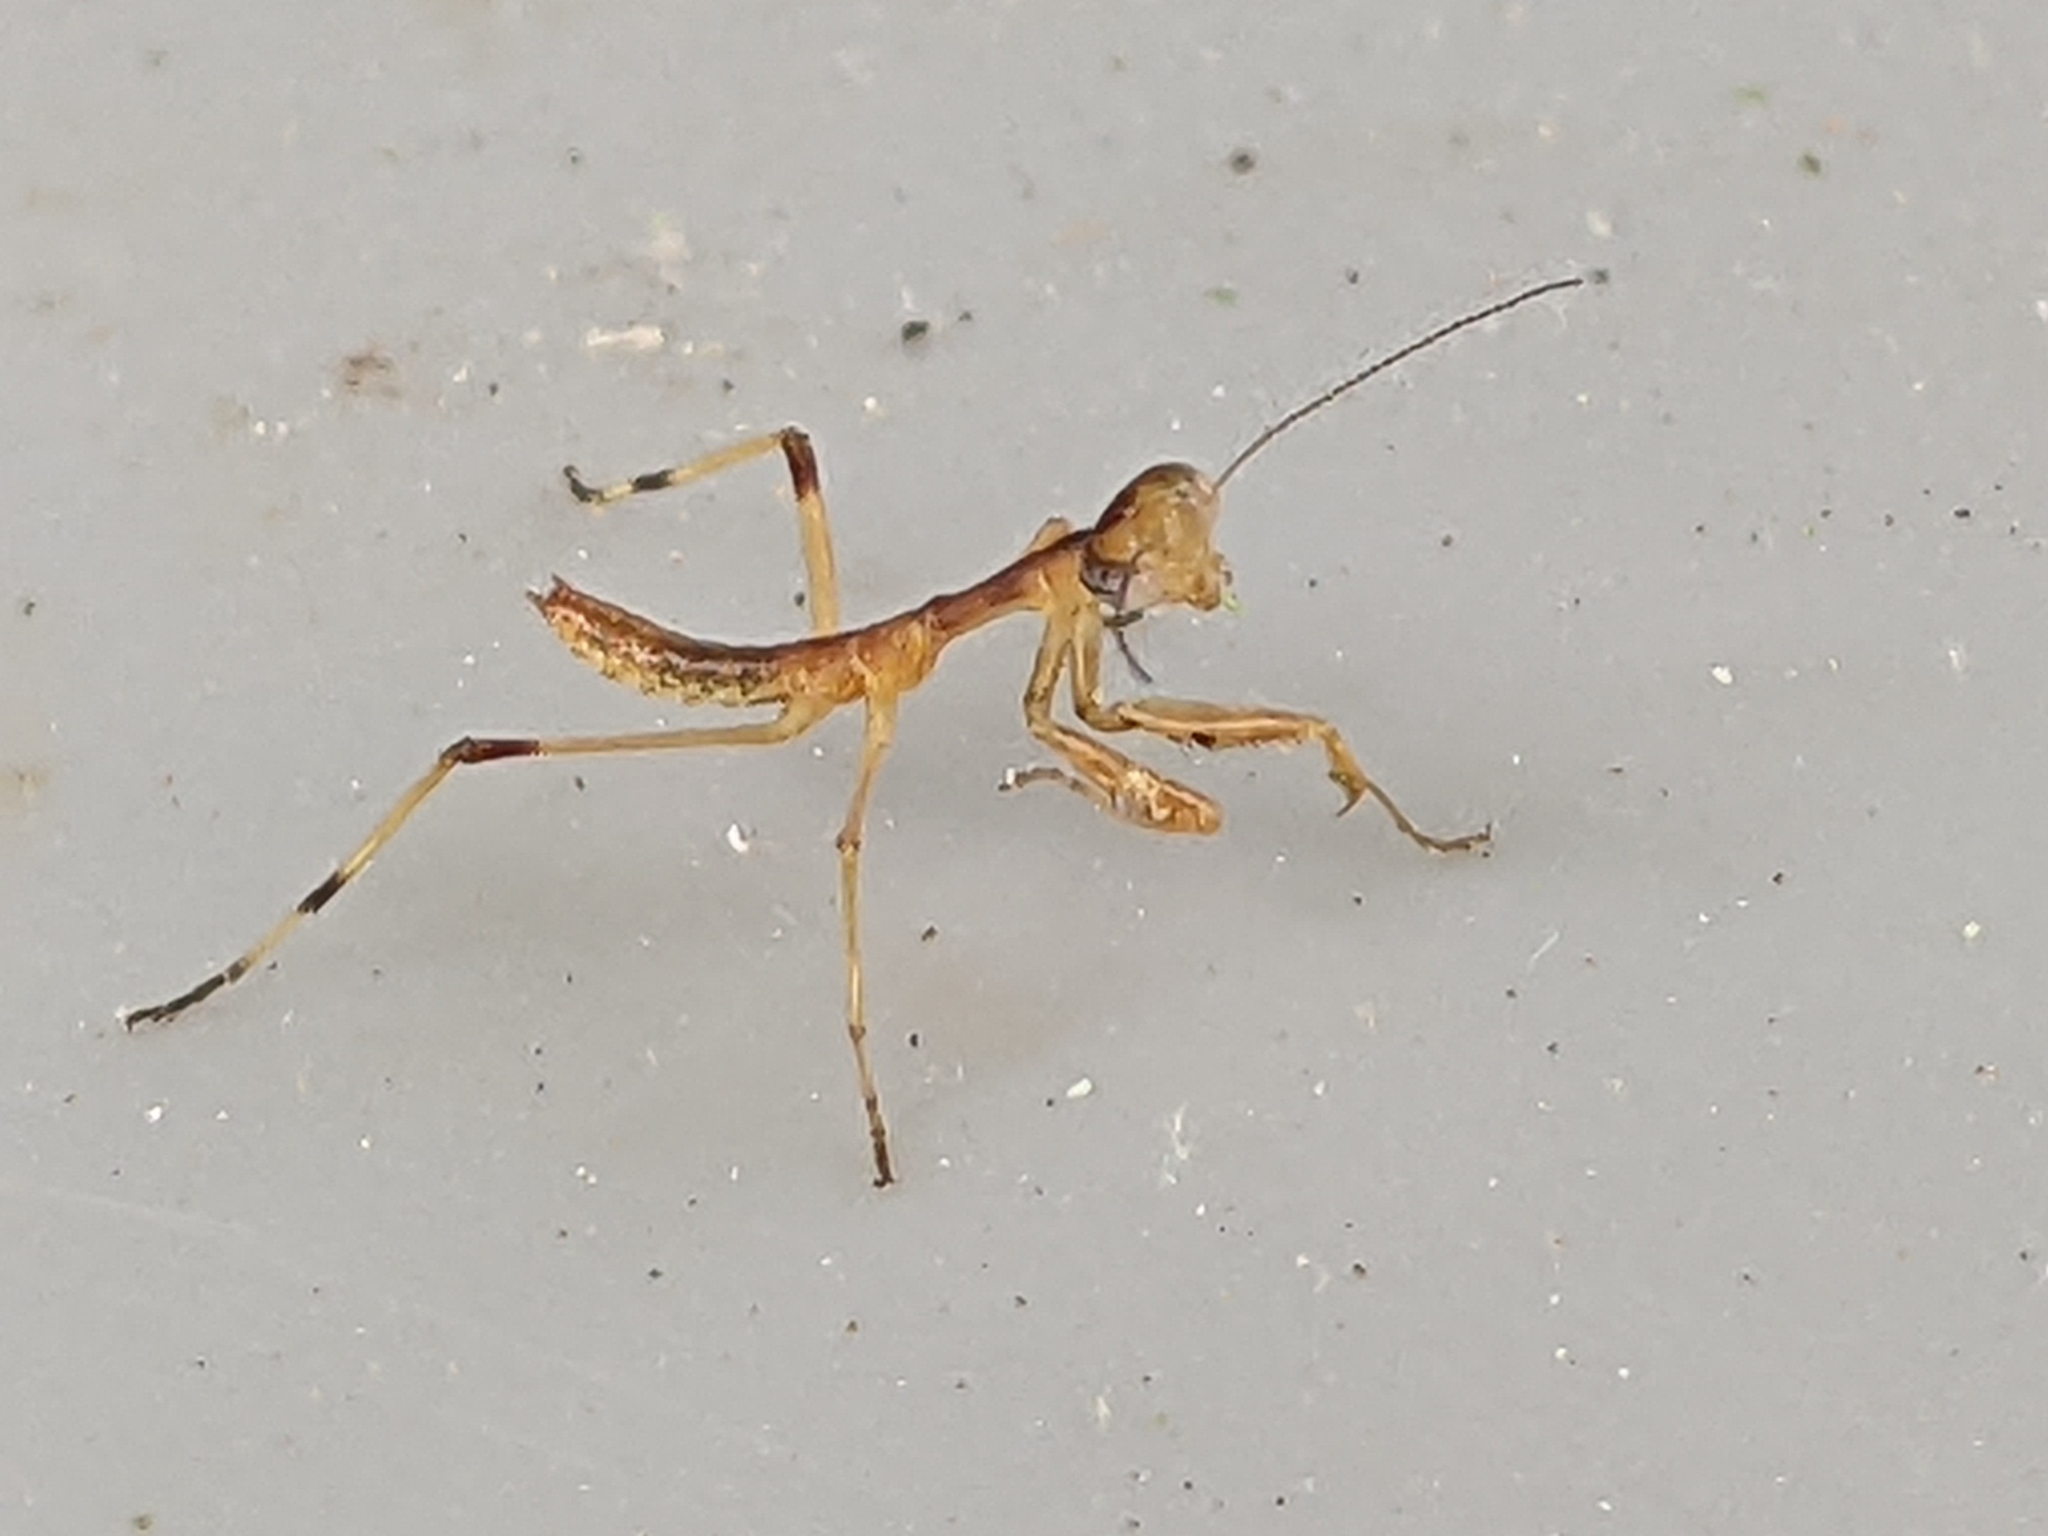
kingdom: Animalia
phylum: Arthropoda
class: Insecta
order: Mantodea
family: Mantidae
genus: Stagmomantis
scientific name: Stagmomantis carolina
